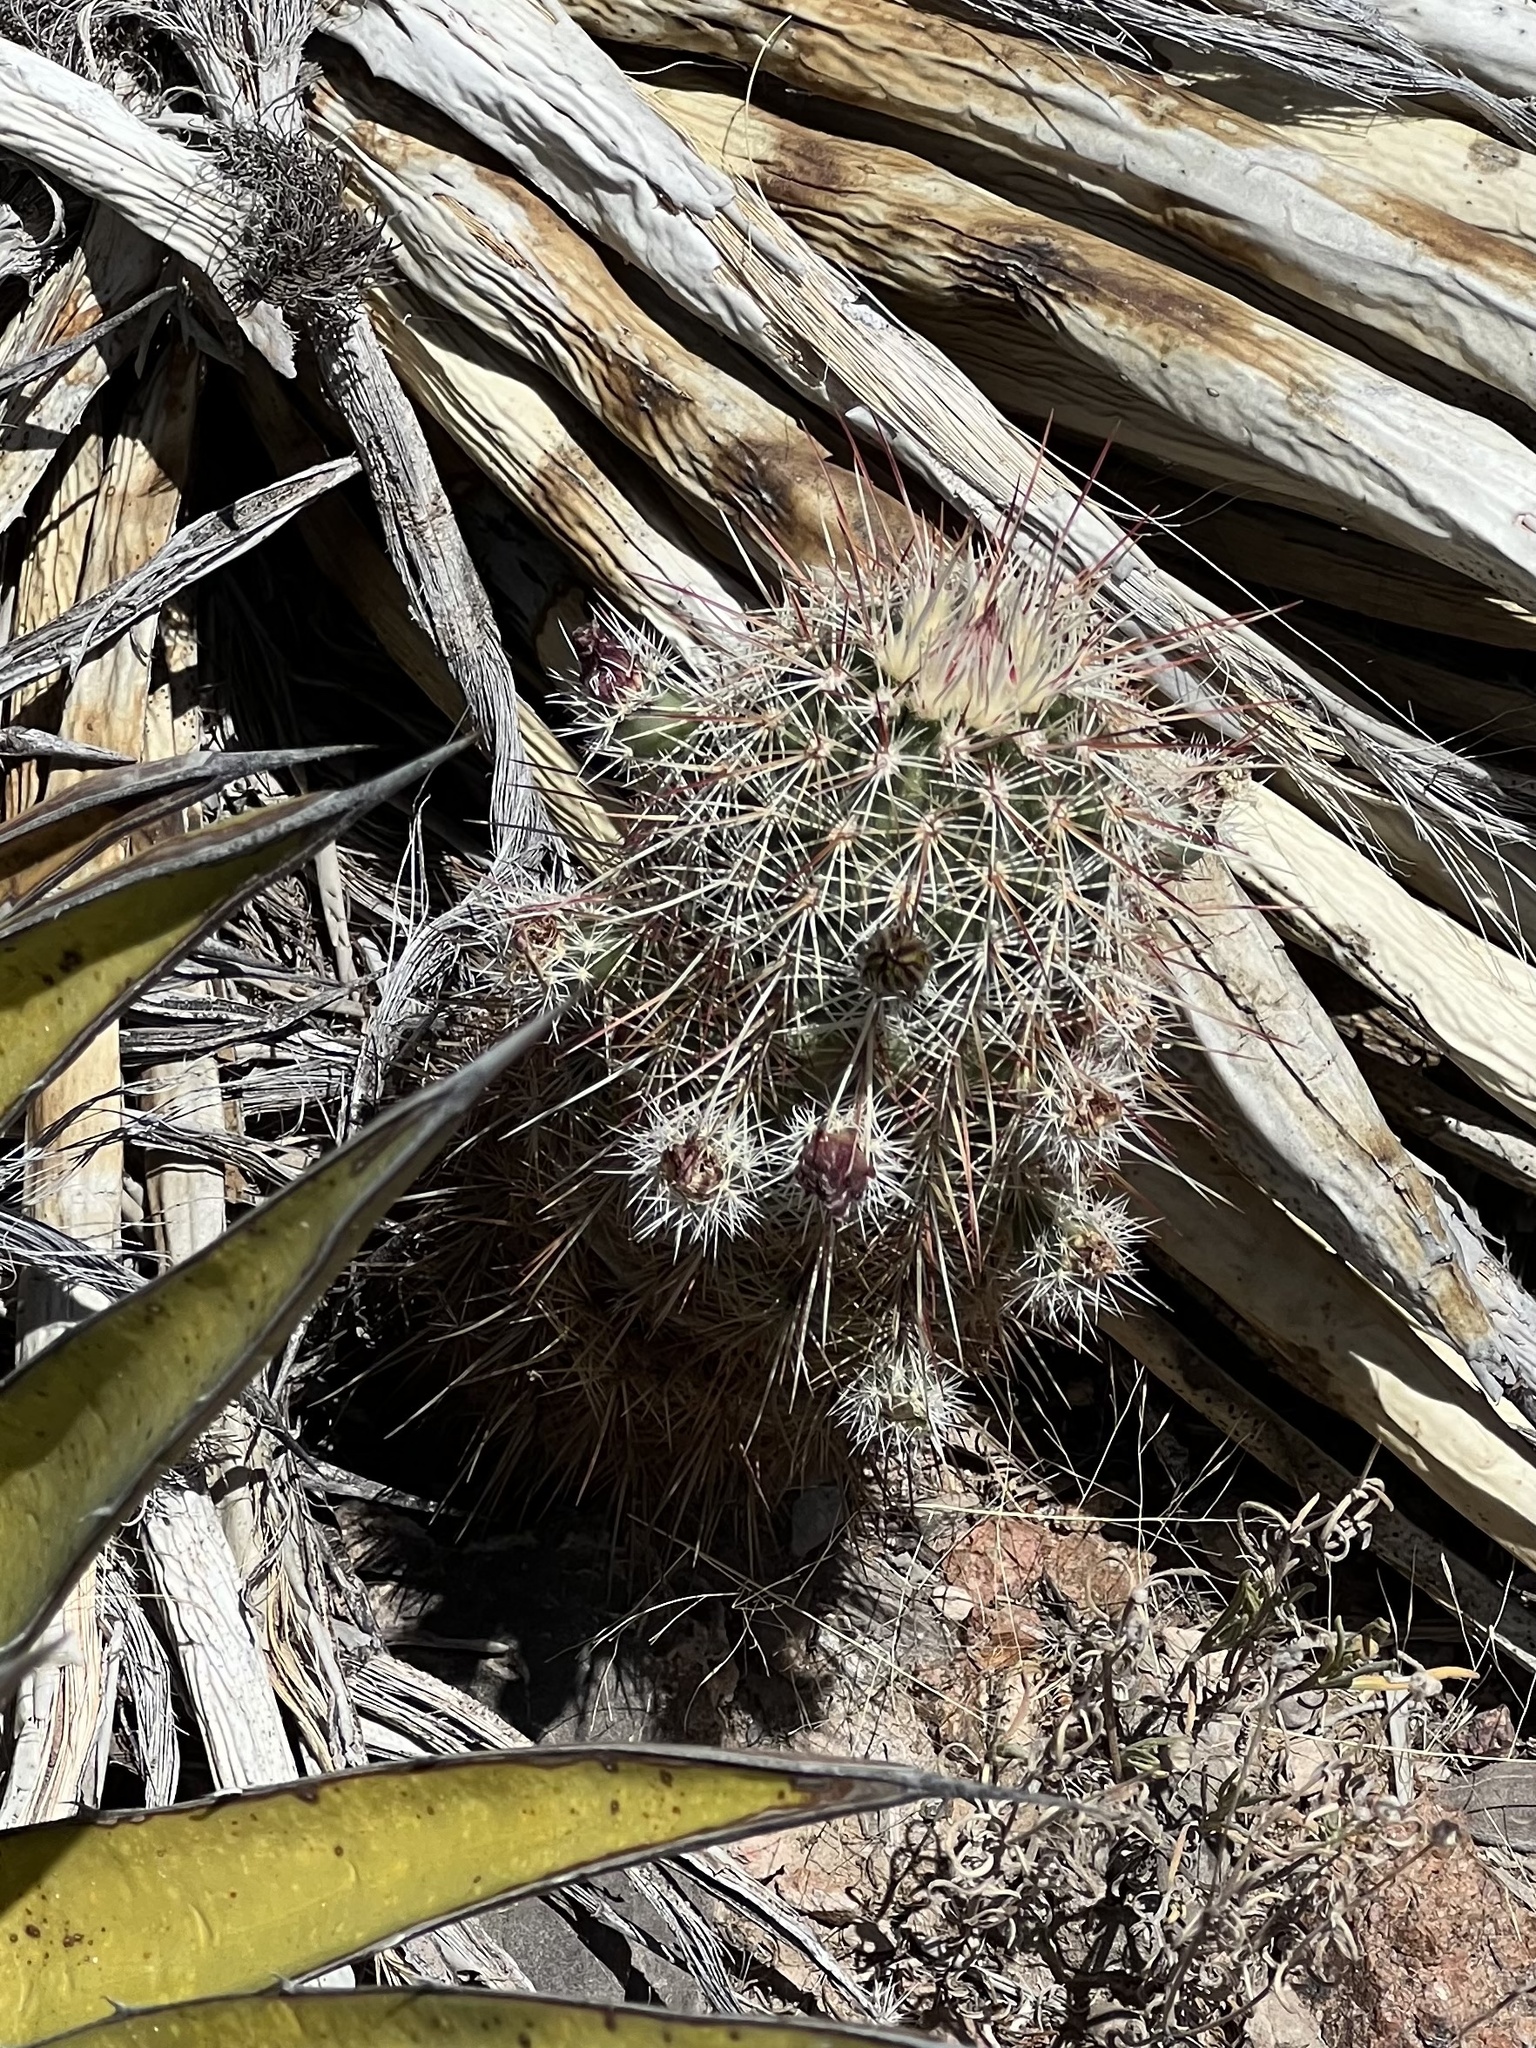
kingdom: Plantae
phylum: Tracheophyta
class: Magnoliopsida
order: Caryophyllales
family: Cactaceae
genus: Echinocereus
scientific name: Echinocereus viridiflorus
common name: Nylon hedgehog cactus
